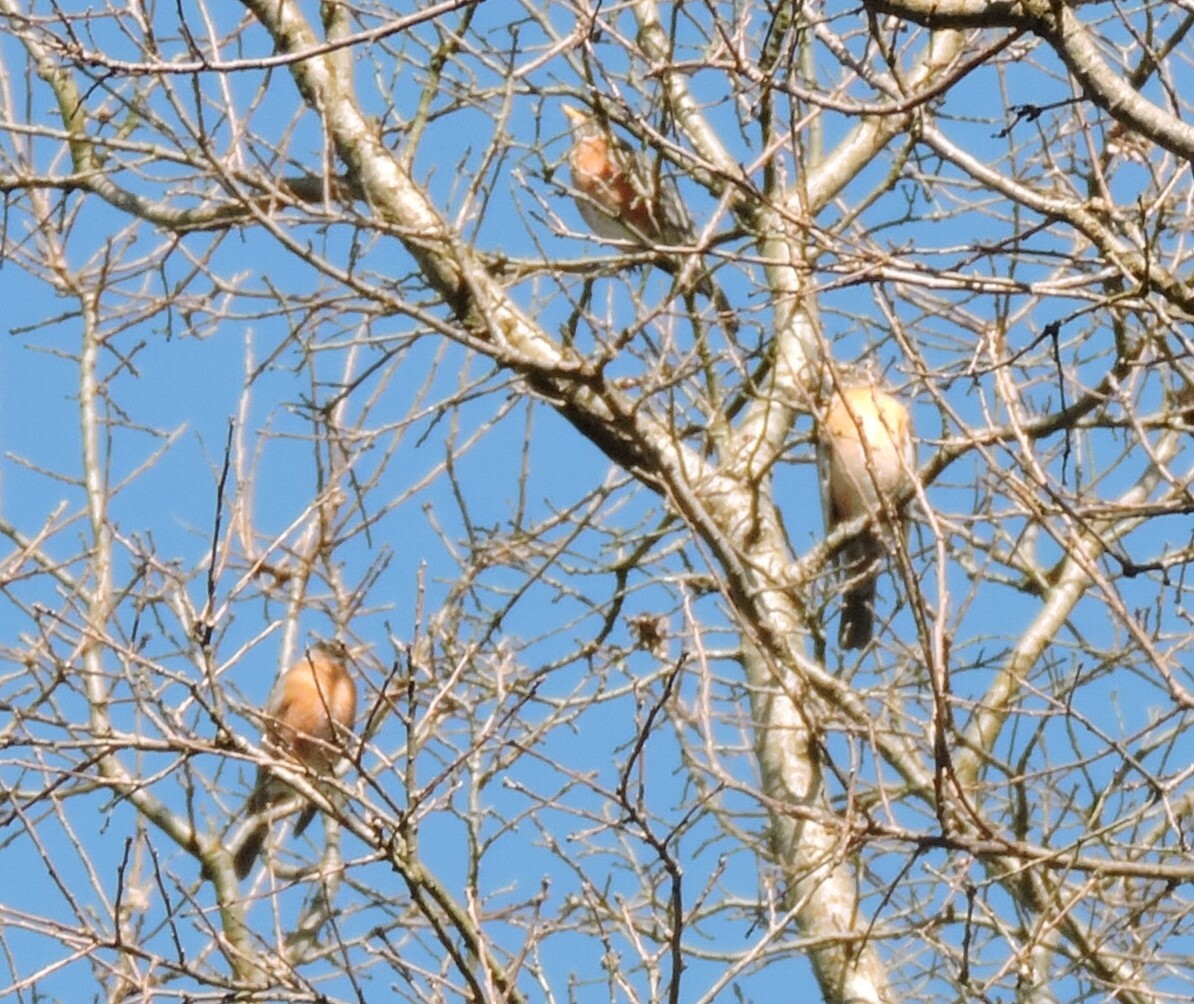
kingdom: Animalia
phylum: Chordata
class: Aves
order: Passeriformes
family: Turdidae
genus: Turdus
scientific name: Turdus migratorius
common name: American robin
